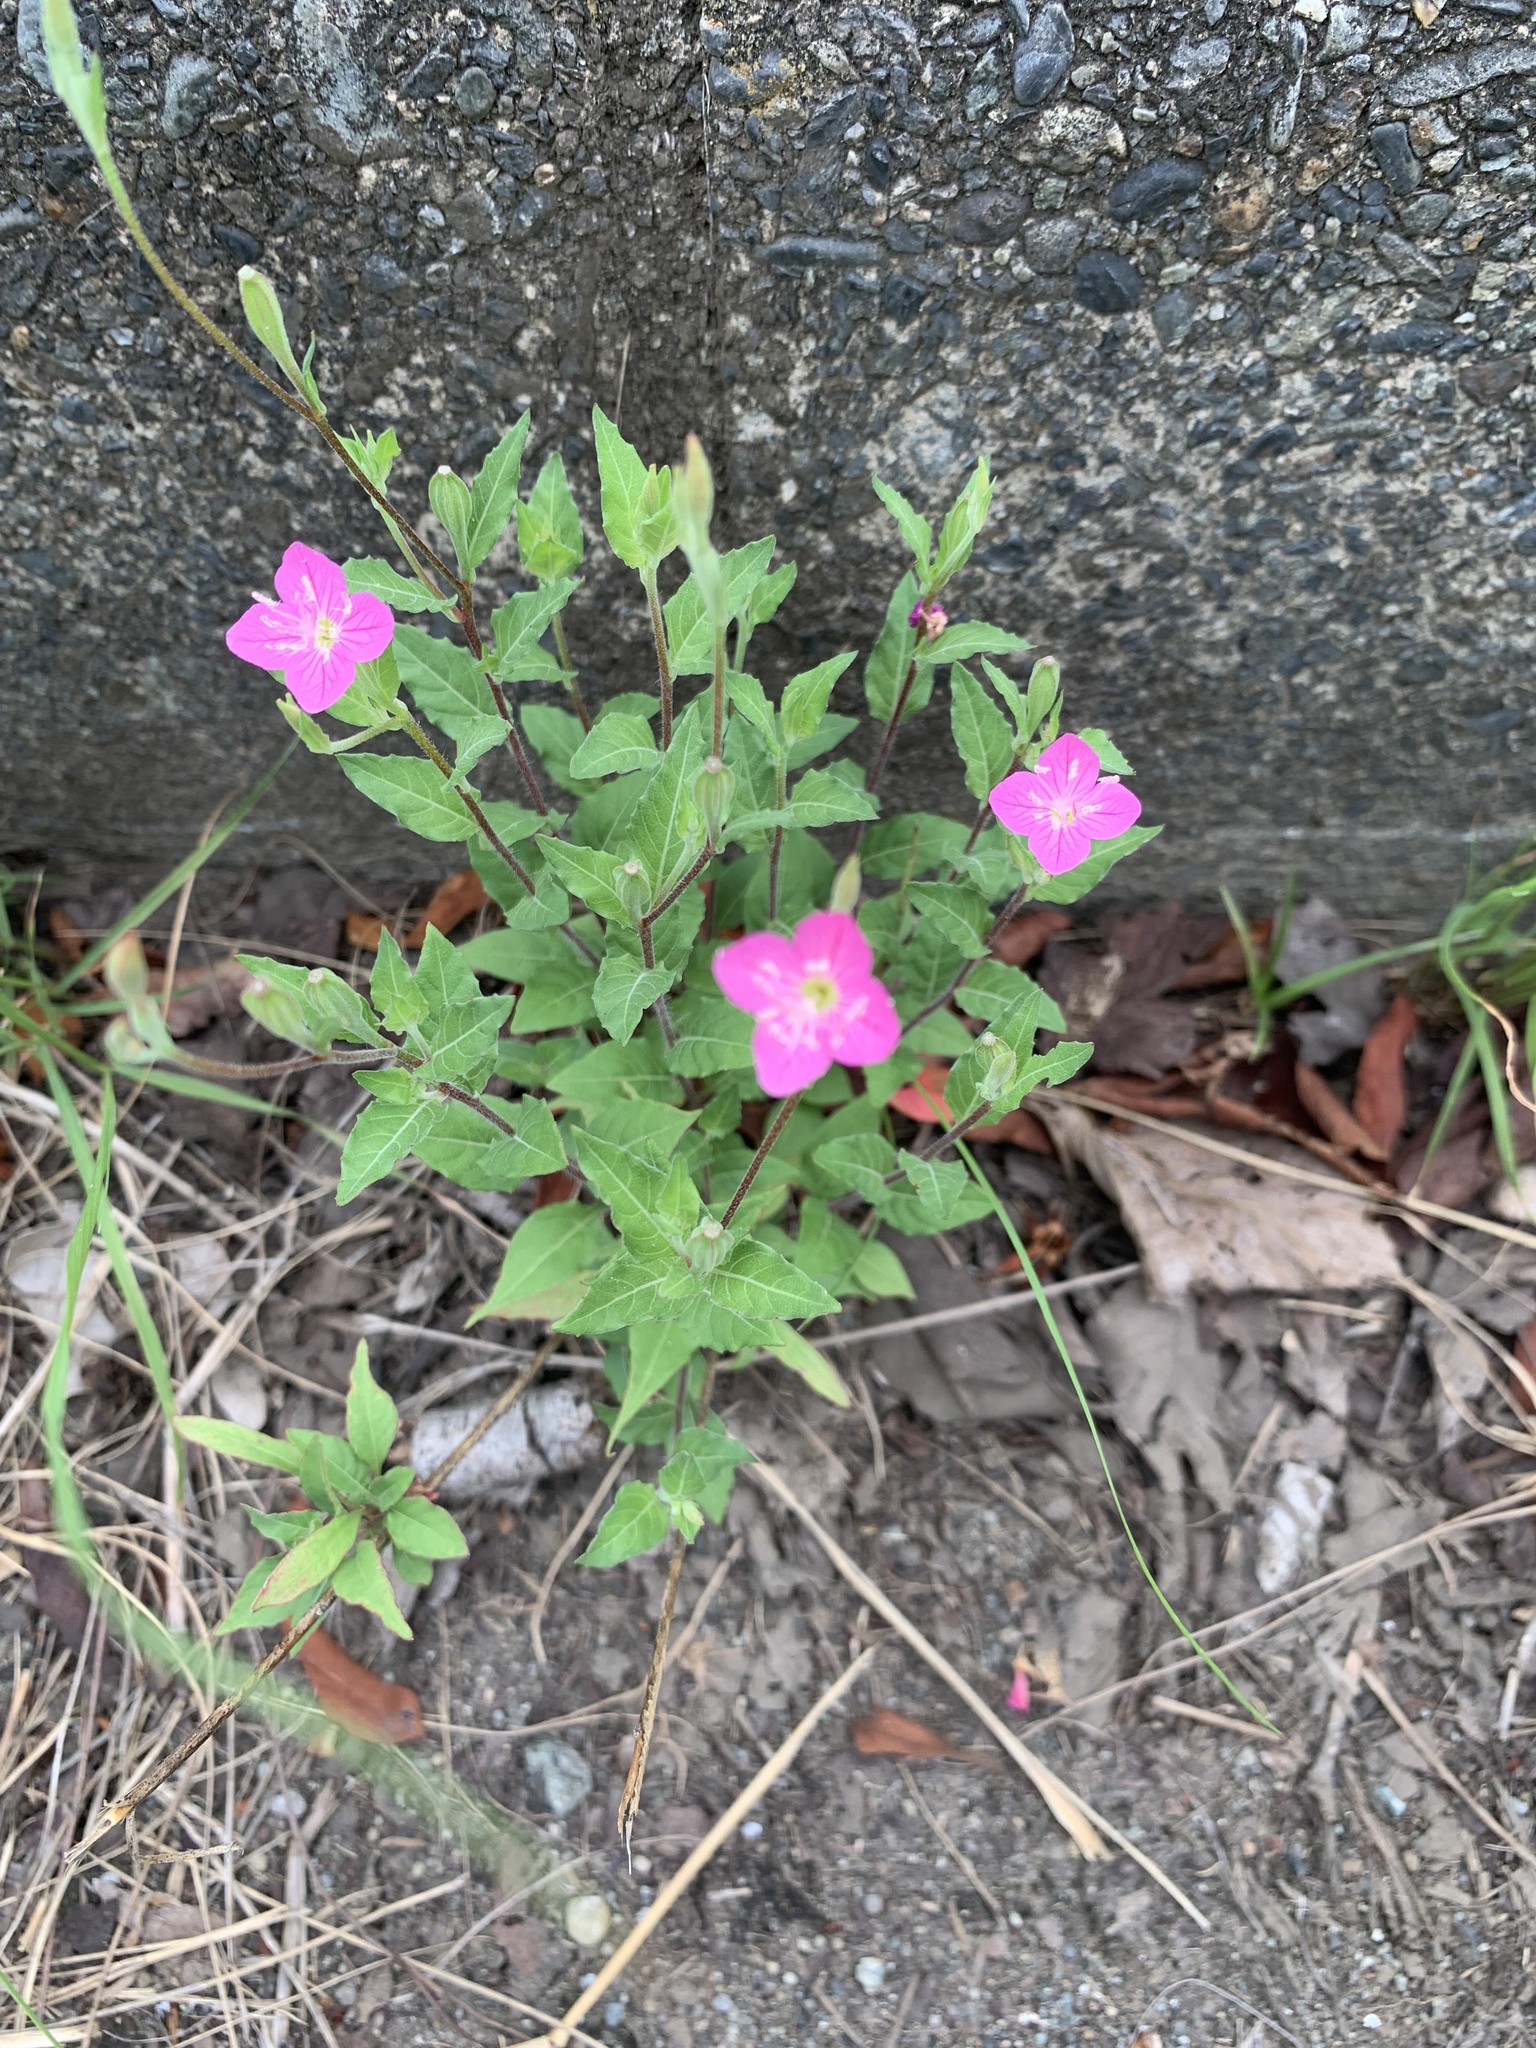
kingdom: Plantae
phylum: Tracheophyta
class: Magnoliopsida
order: Myrtales
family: Onagraceae
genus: Oenothera
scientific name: Oenothera rosea
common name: Rosy evening-primrose
